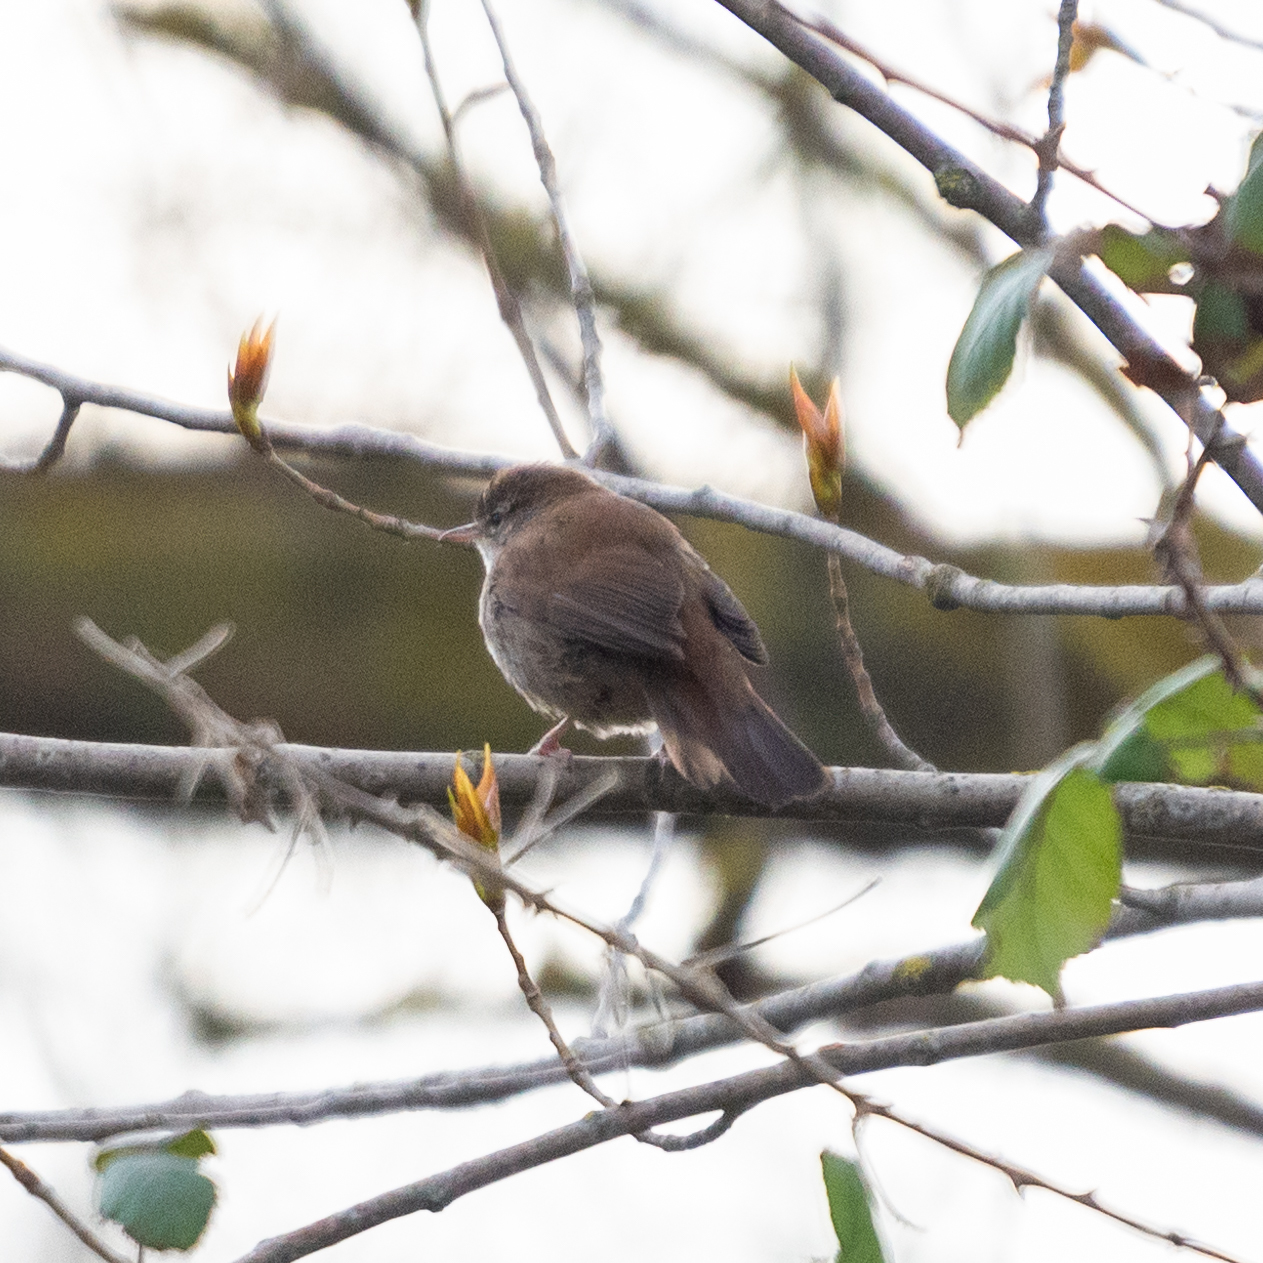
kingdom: Animalia
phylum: Chordata
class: Aves
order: Passeriformes
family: Cettiidae
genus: Cettia
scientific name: Cettia cetti
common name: Cetti's warbler
